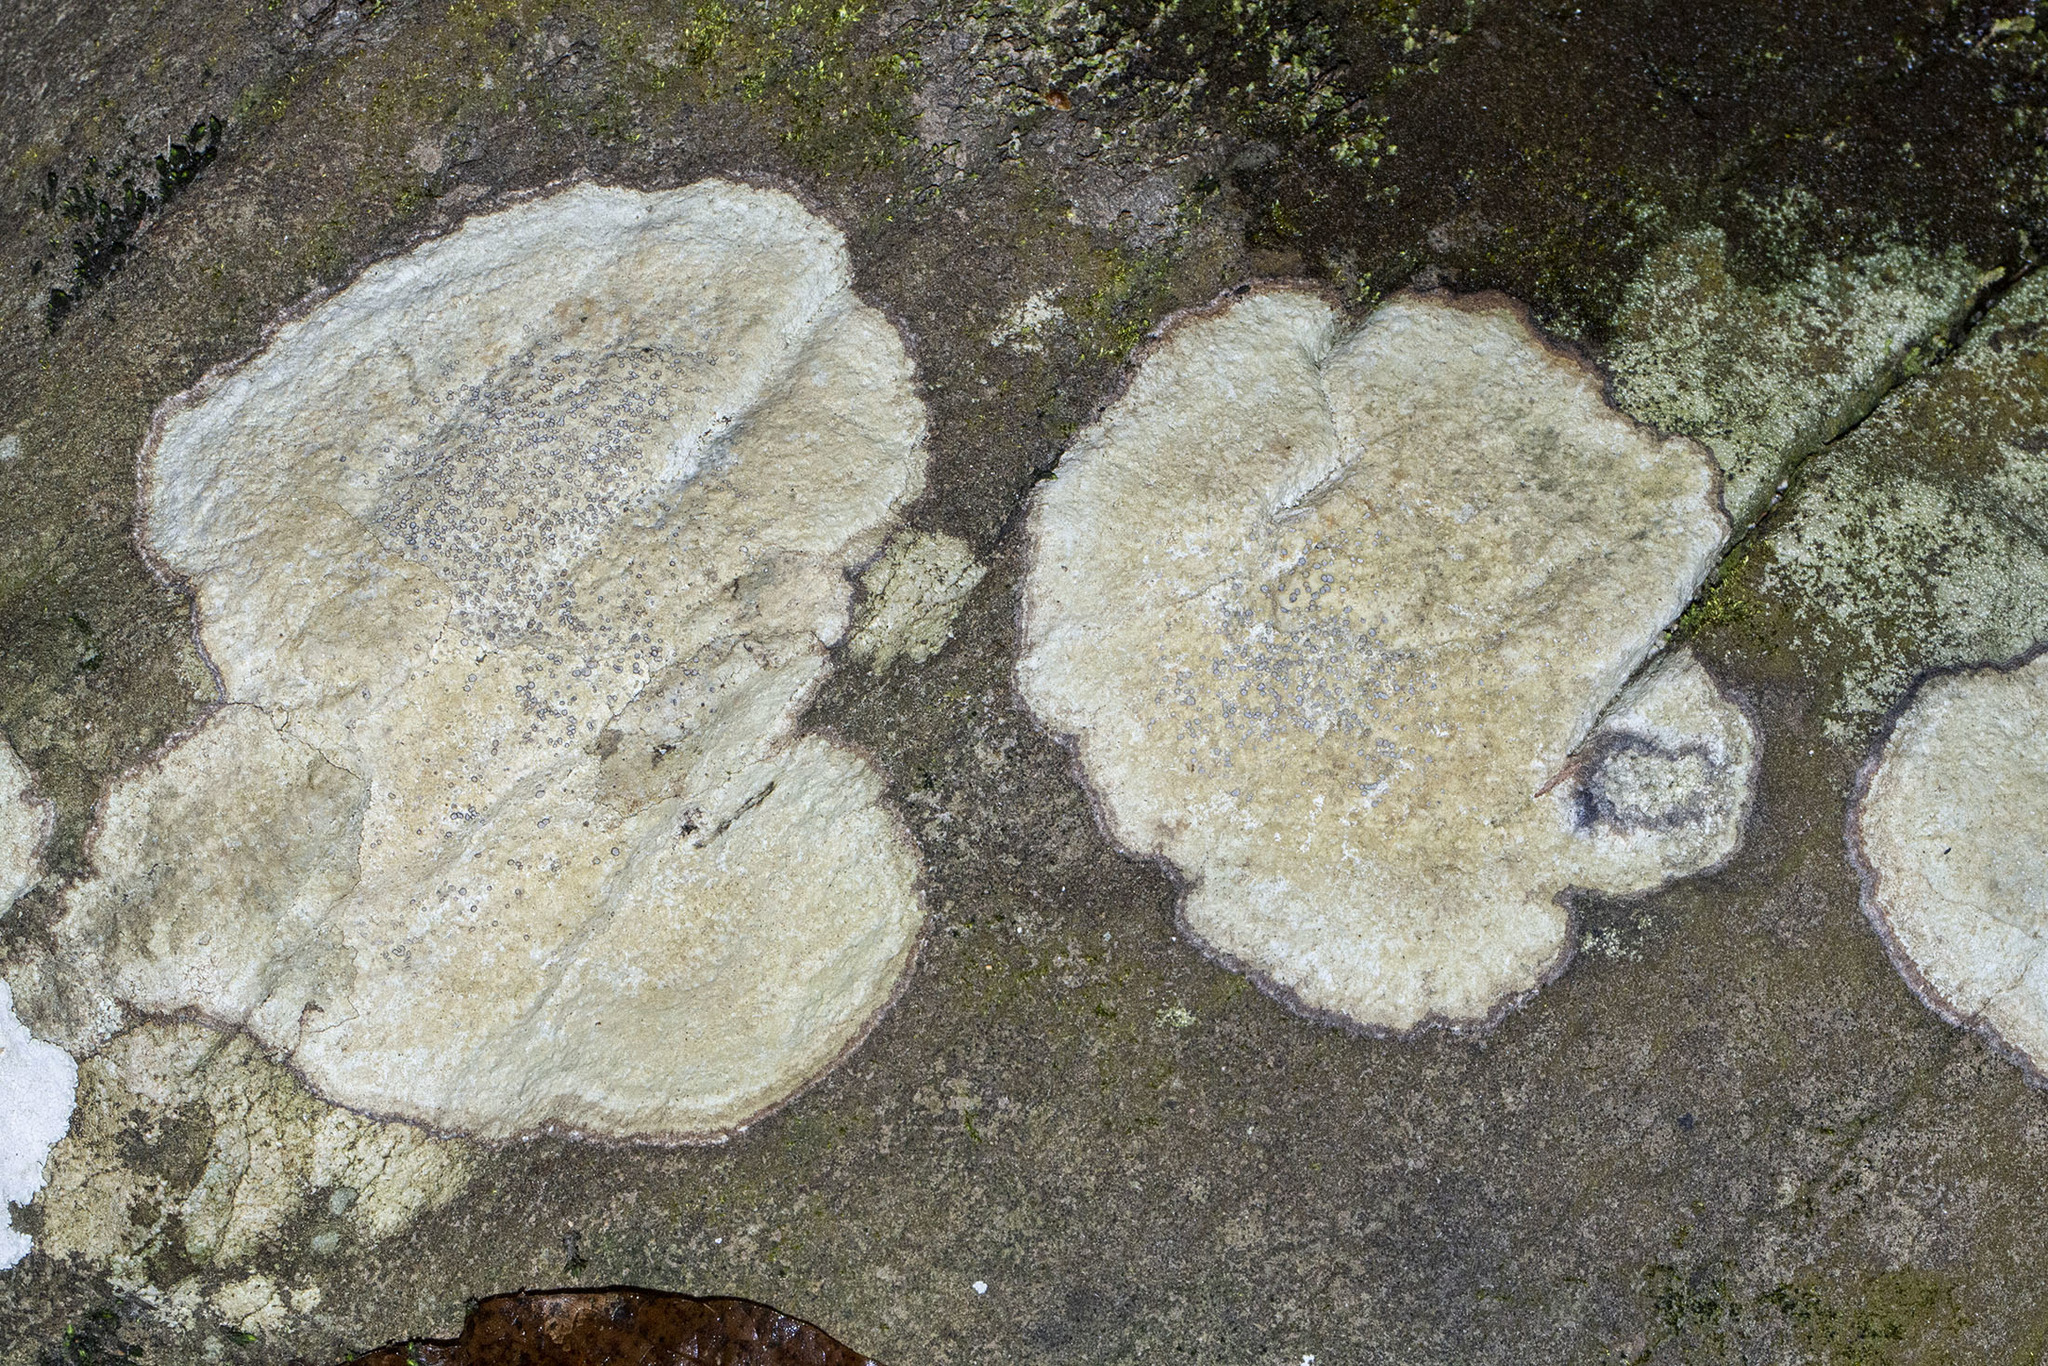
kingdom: Fungi
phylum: Ascomycota
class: Lecanoromycetes
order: Lecideales
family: Lecideaceae
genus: Porpidia
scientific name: Porpidia albocaerulescens
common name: Smokey-eyed boulder lichen
